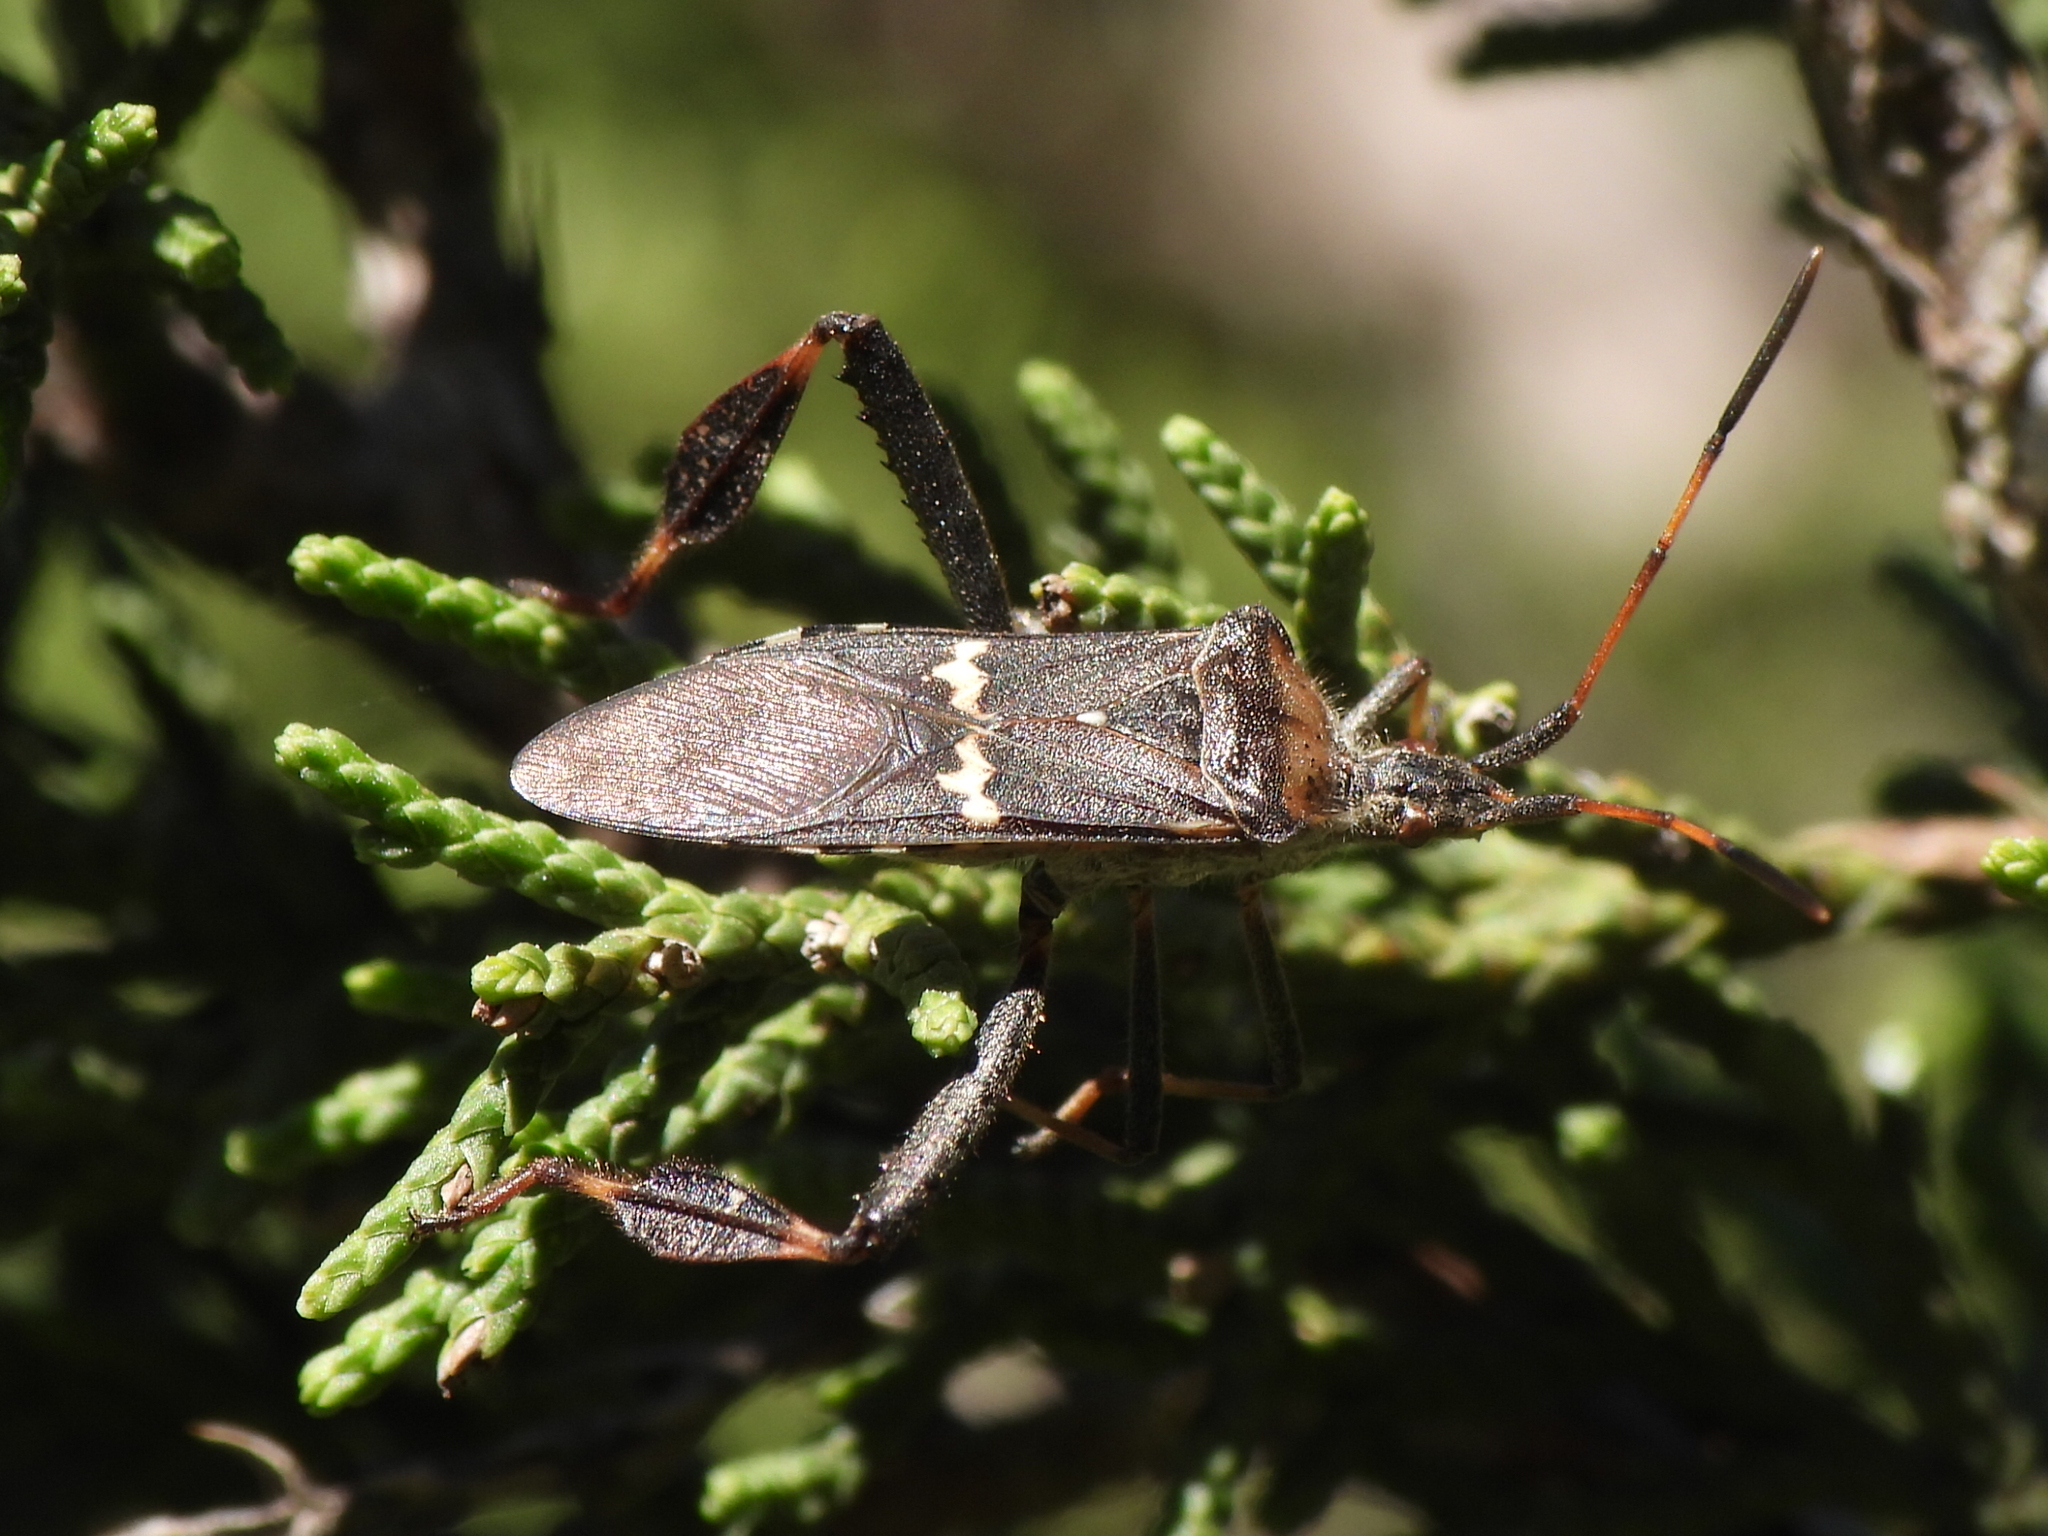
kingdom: Animalia
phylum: Arthropoda
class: Insecta
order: Hemiptera
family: Coreidae
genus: Leptoglossus
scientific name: Leptoglossus clypealis
